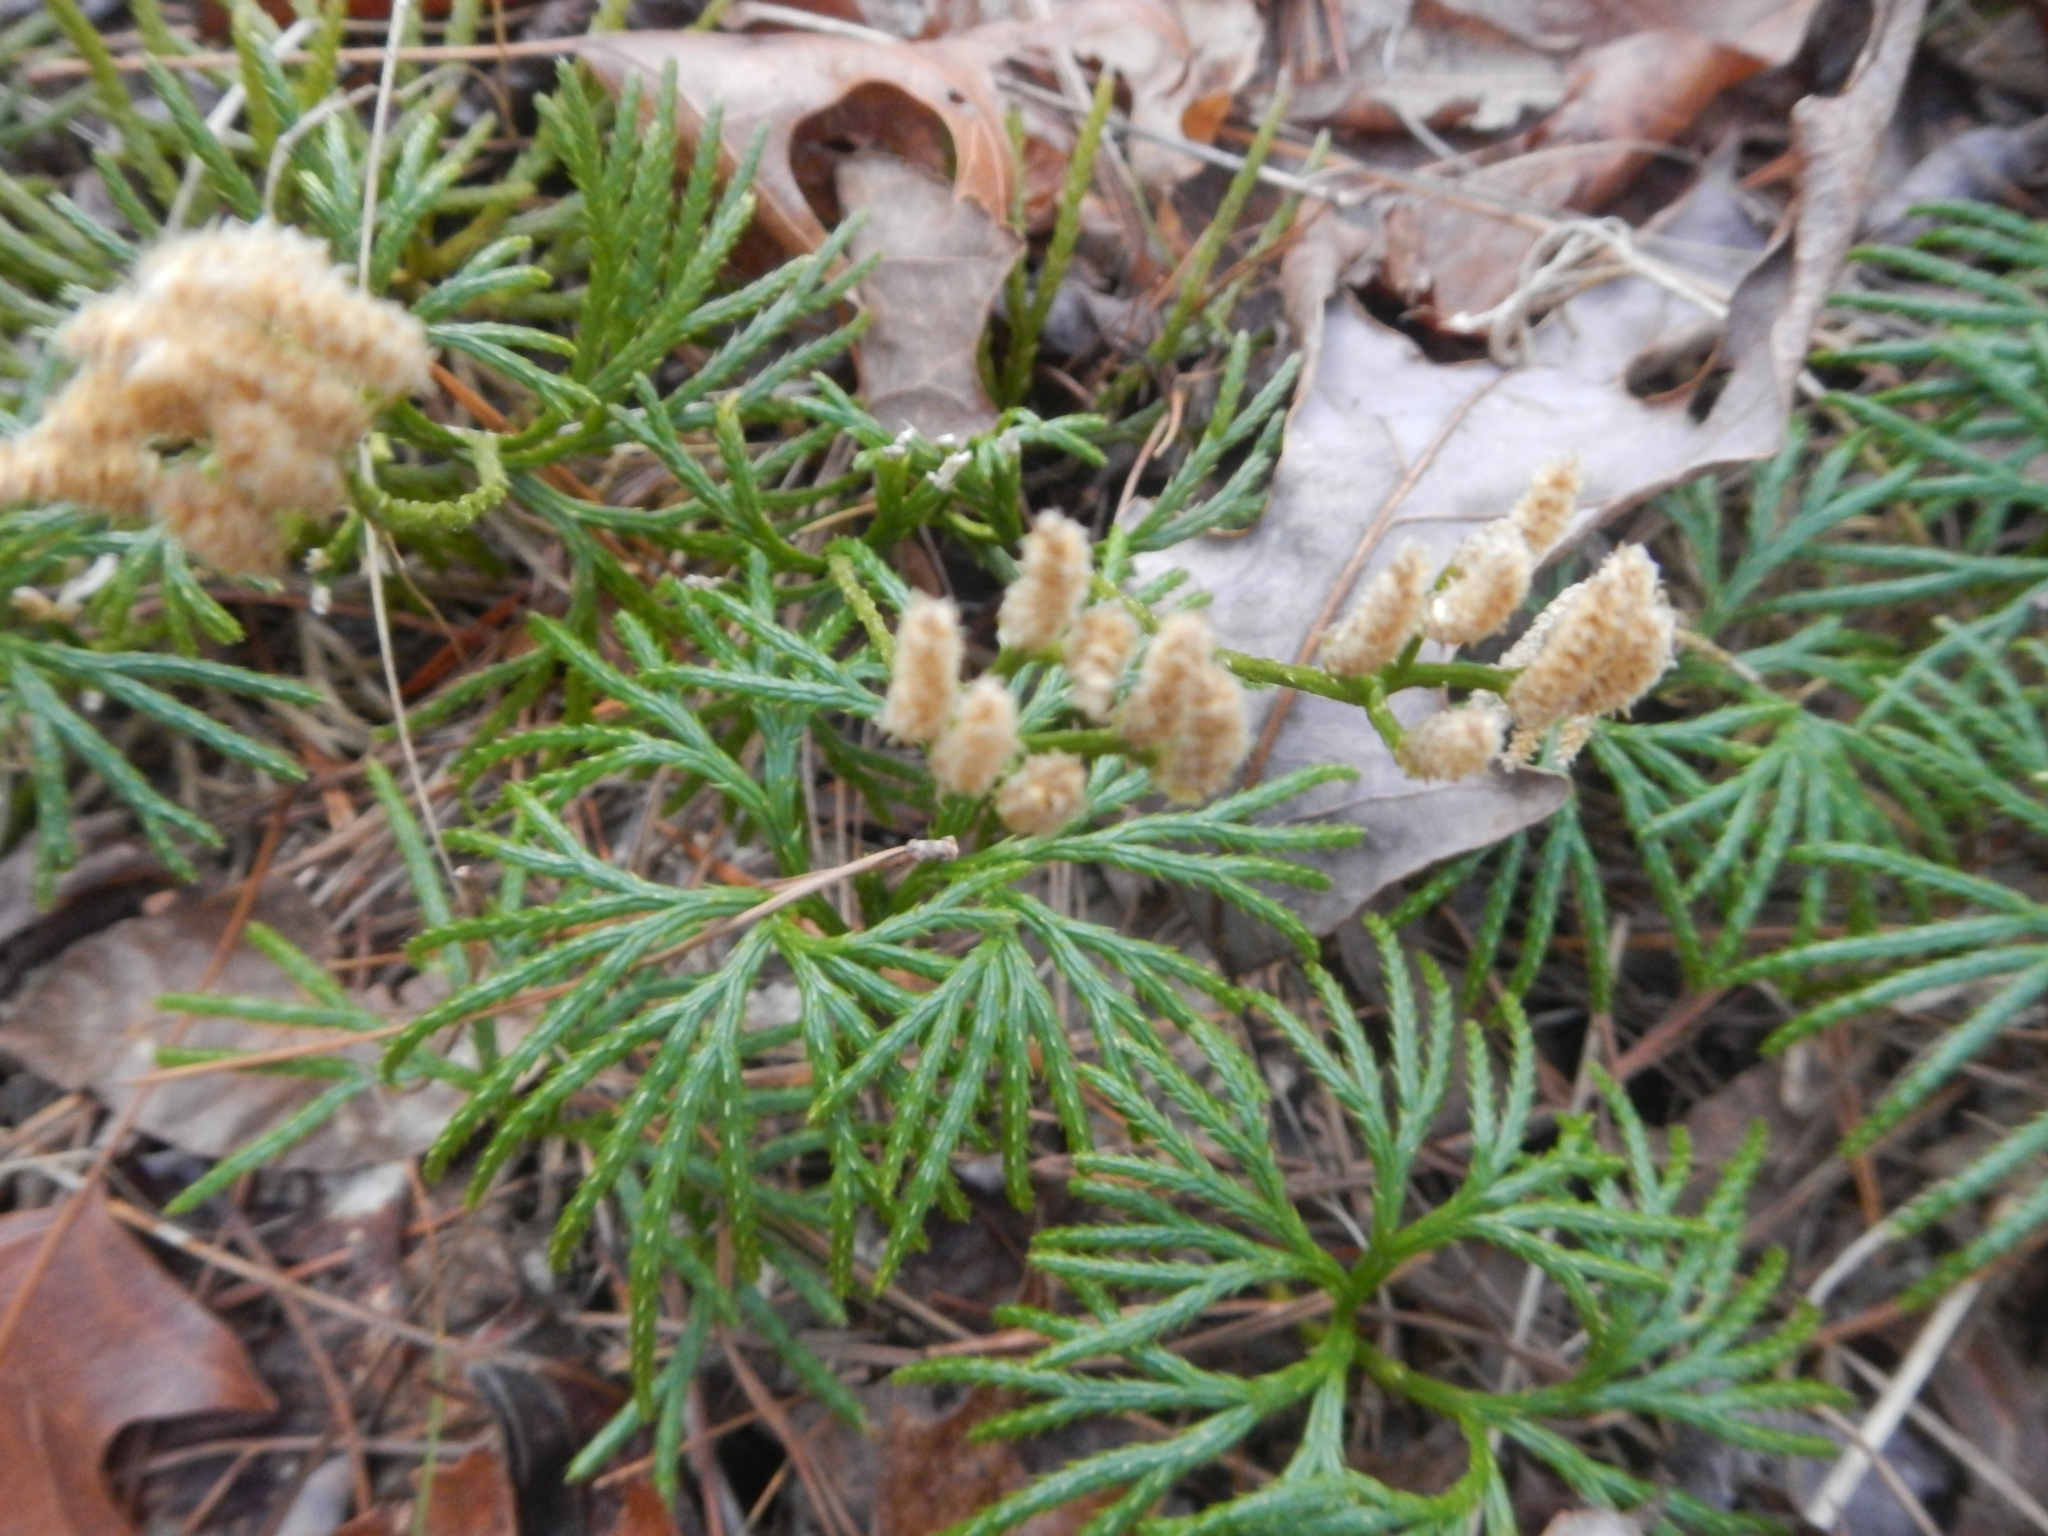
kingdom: Plantae
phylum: Tracheophyta
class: Lycopodiopsida
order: Lycopodiales
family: Lycopodiaceae
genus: Diphasiastrum
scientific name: Diphasiastrum digitatum
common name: Southern running-pine
